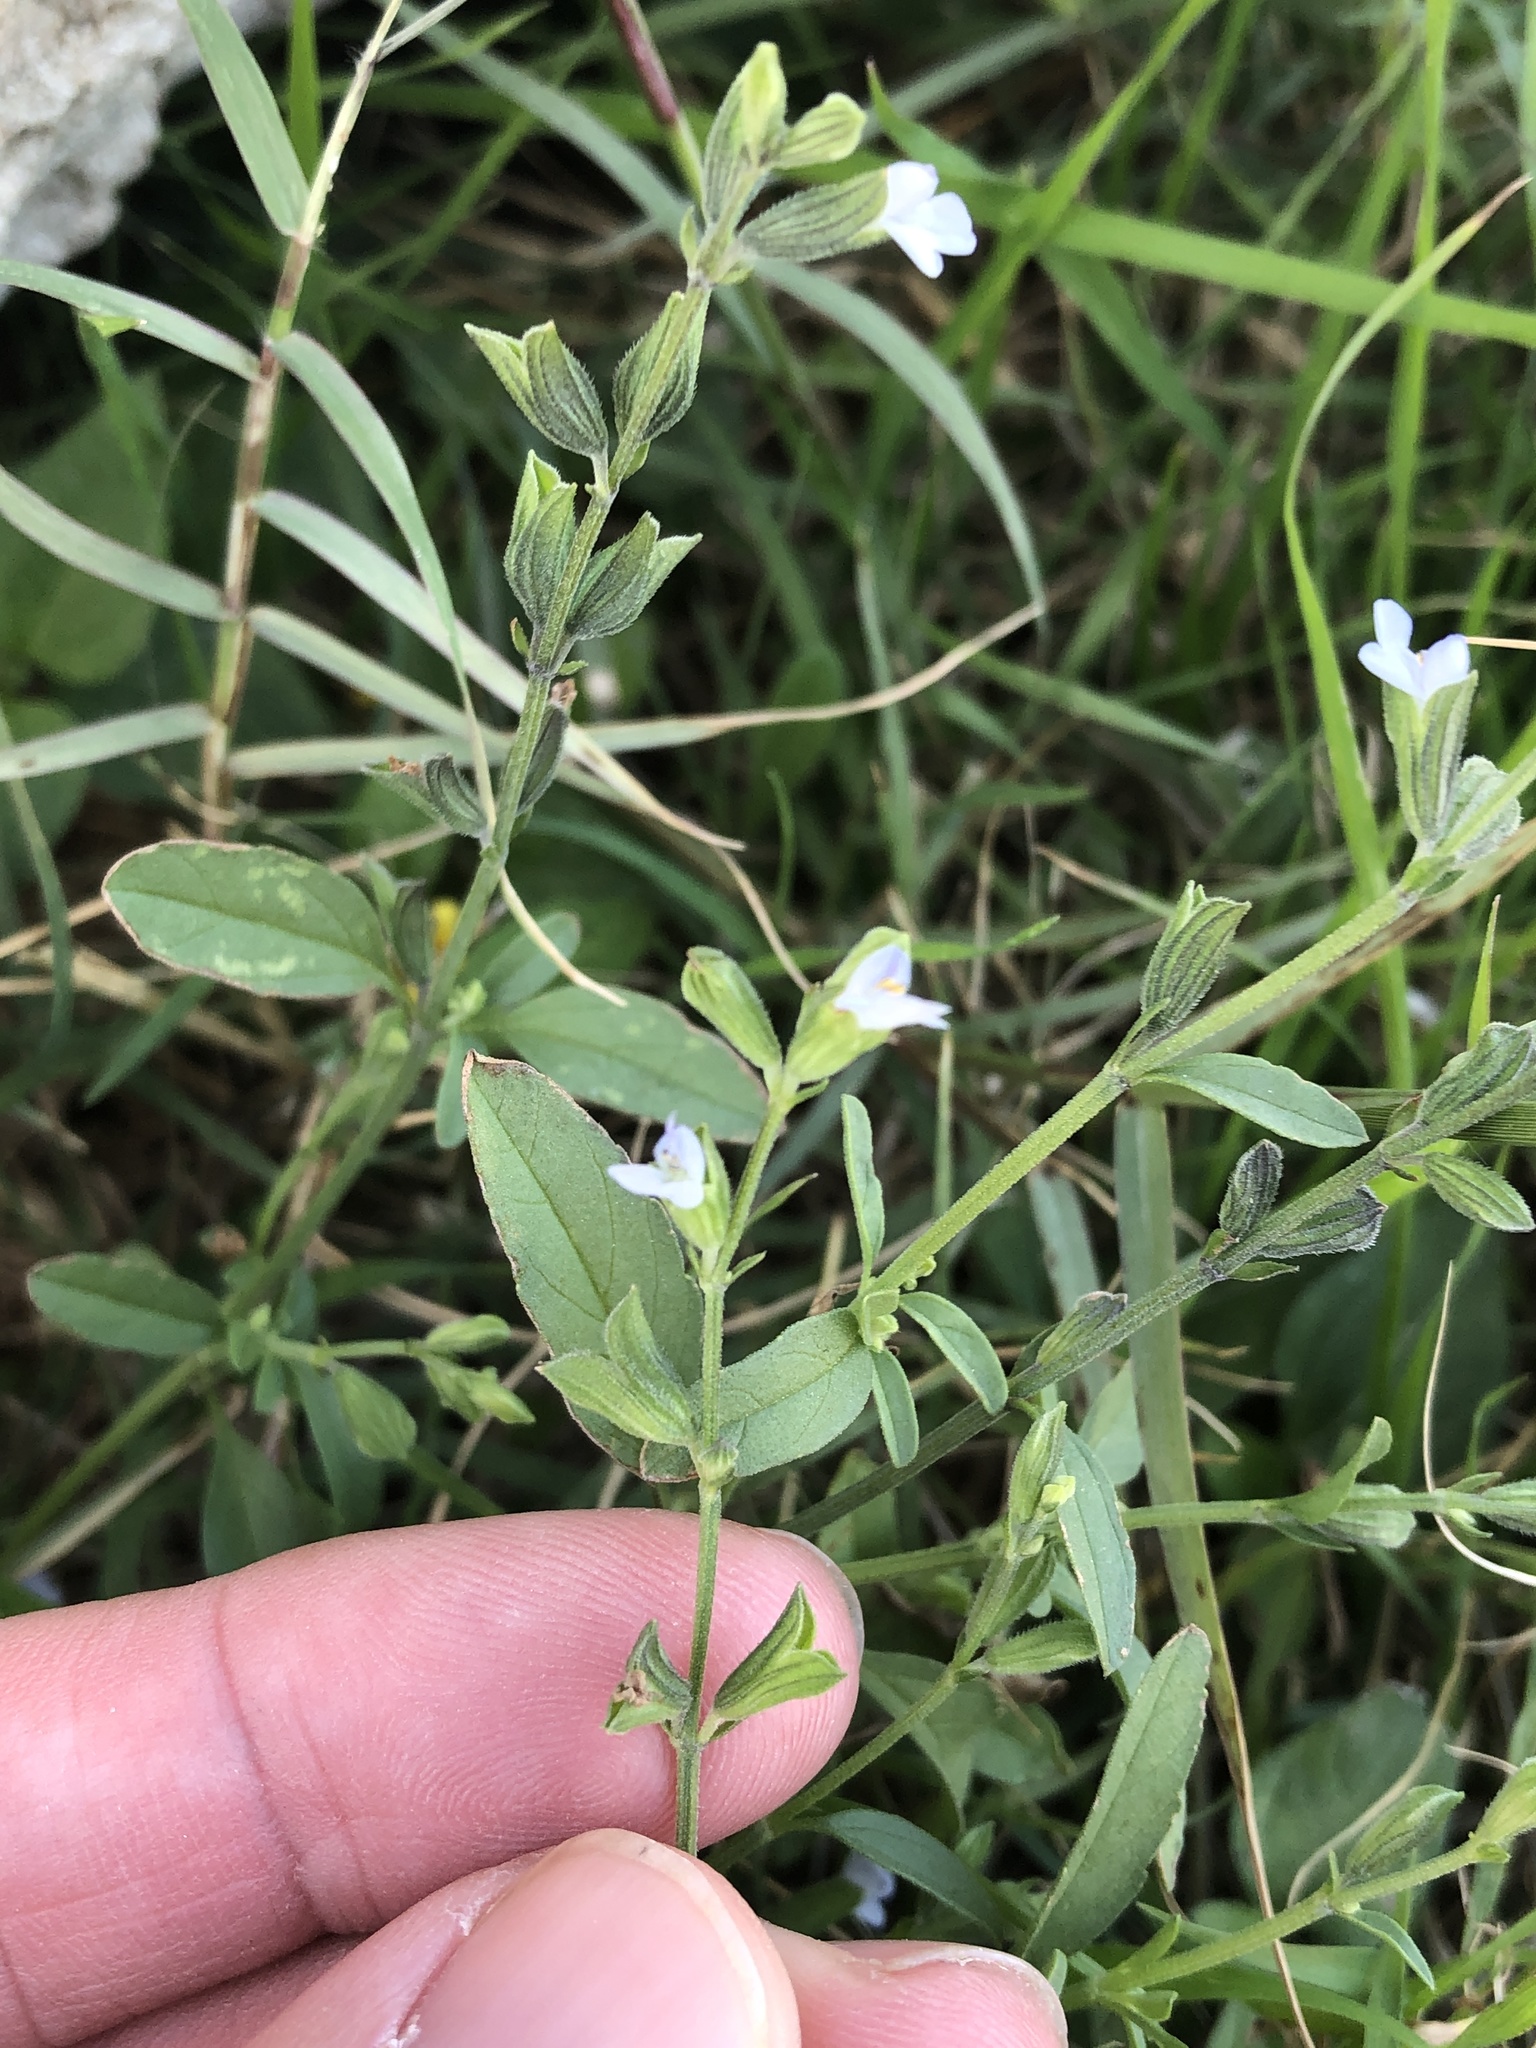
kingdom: Plantae
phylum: Tracheophyta
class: Magnoliopsida
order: Lamiales
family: Lamiaceae
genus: Salvia
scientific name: Salvia reflexa
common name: Mintweed
